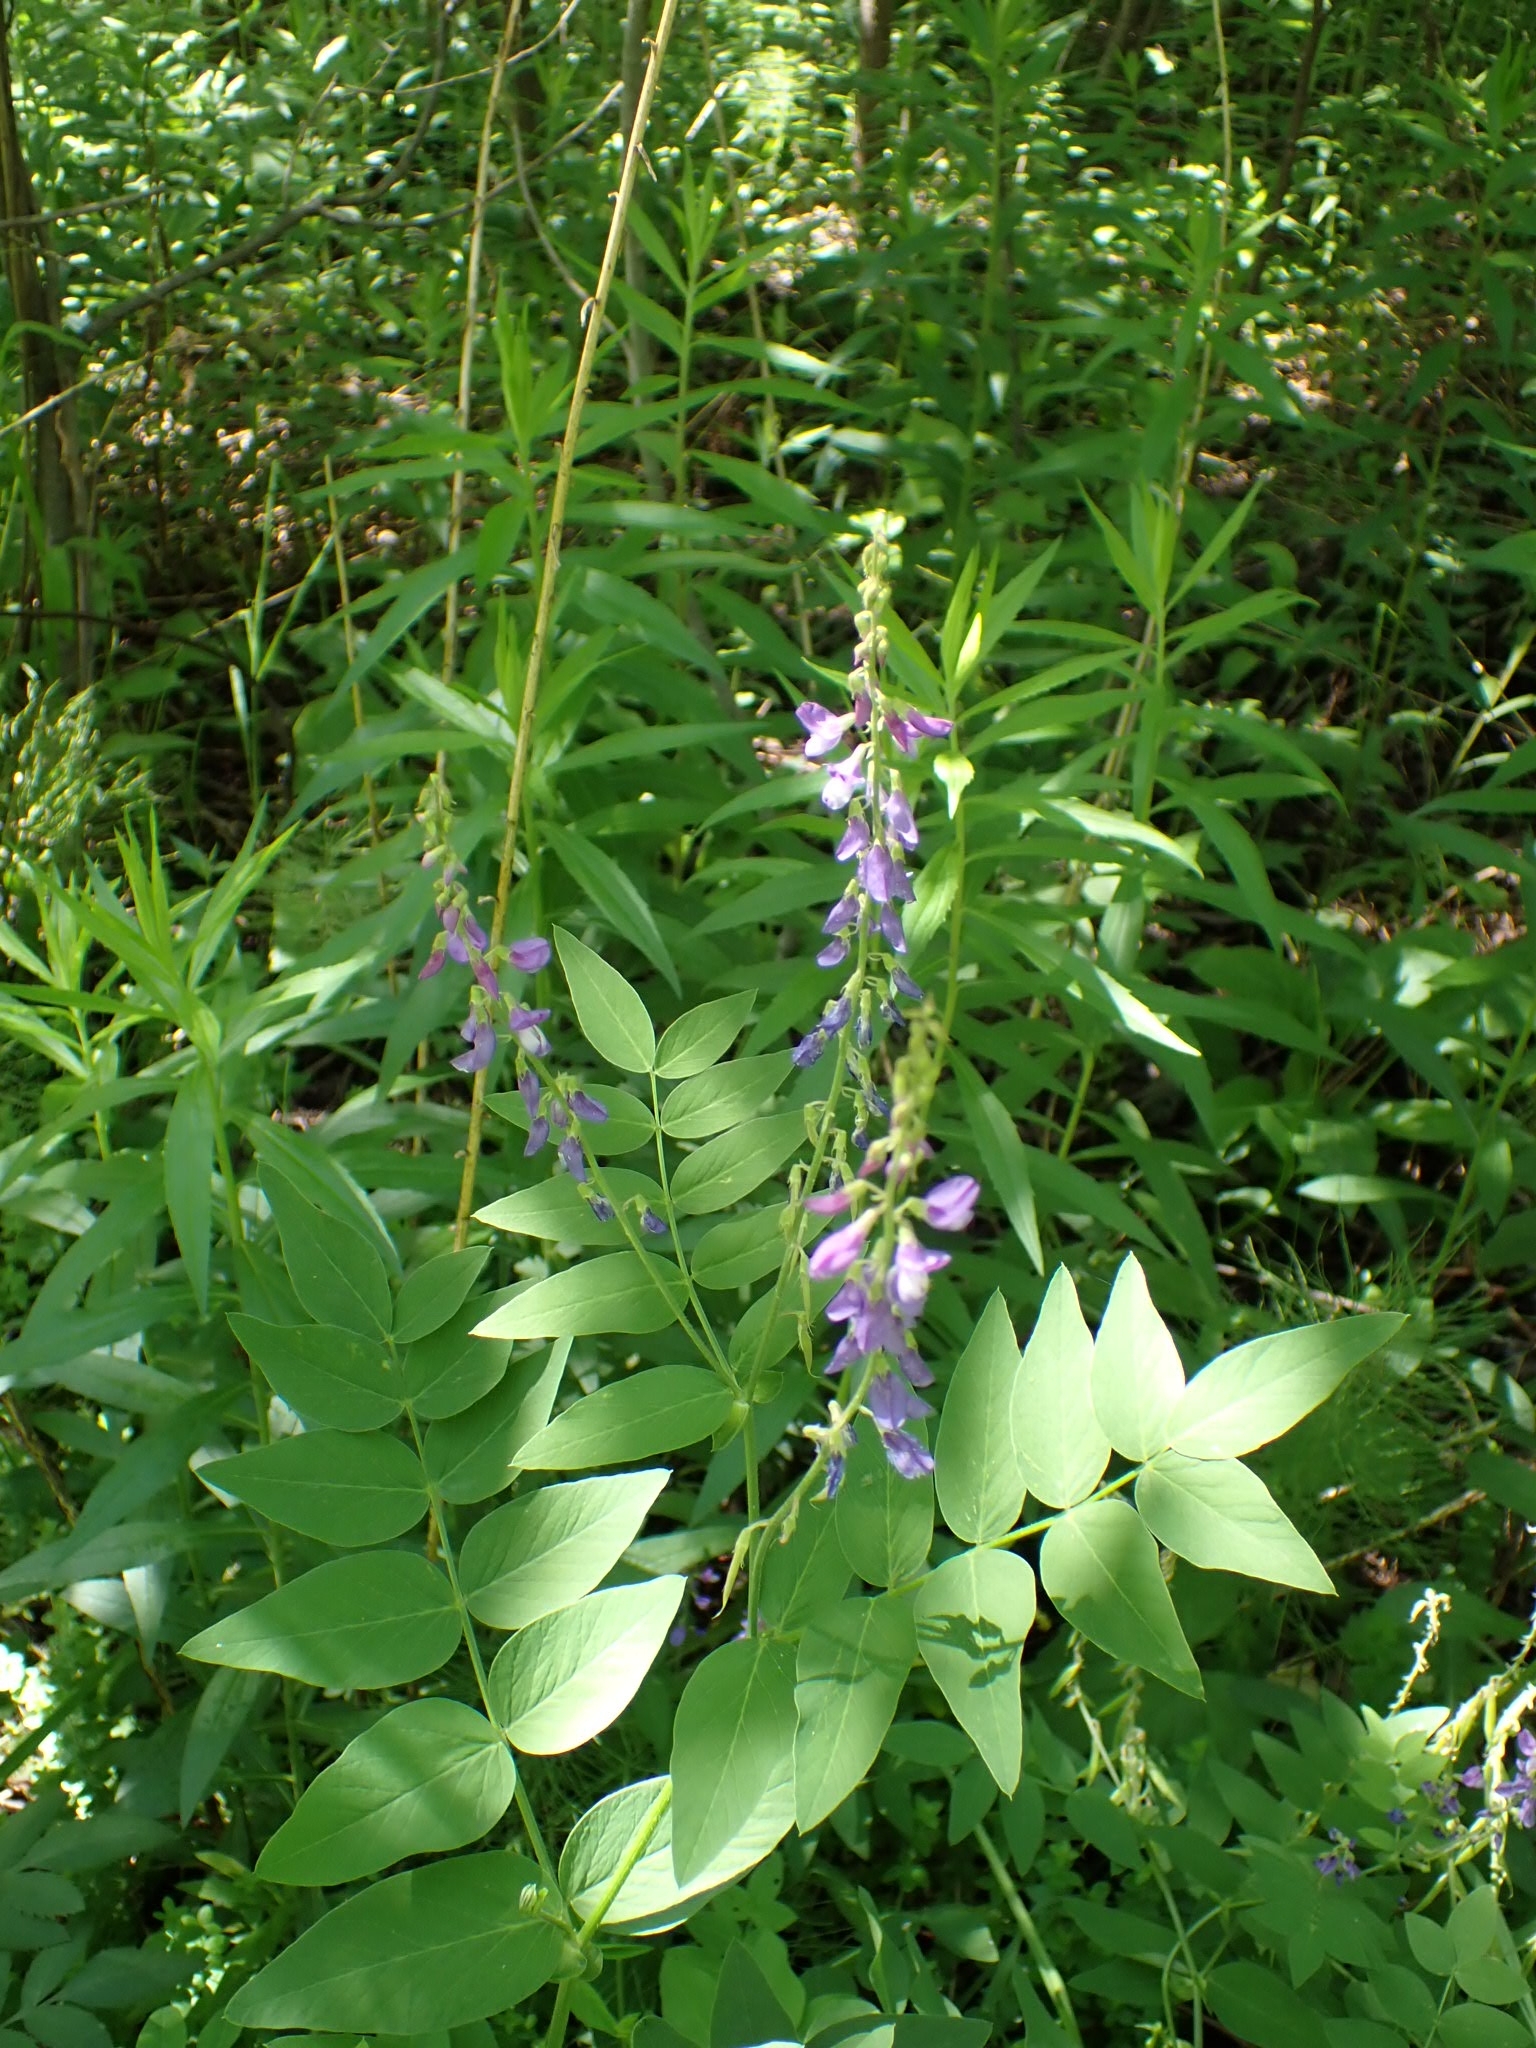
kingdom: Plantae
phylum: Tracheophyta
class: Magnoliopsida
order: Fabales
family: Fabaceae
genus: Galega
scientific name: Galega orientalis
